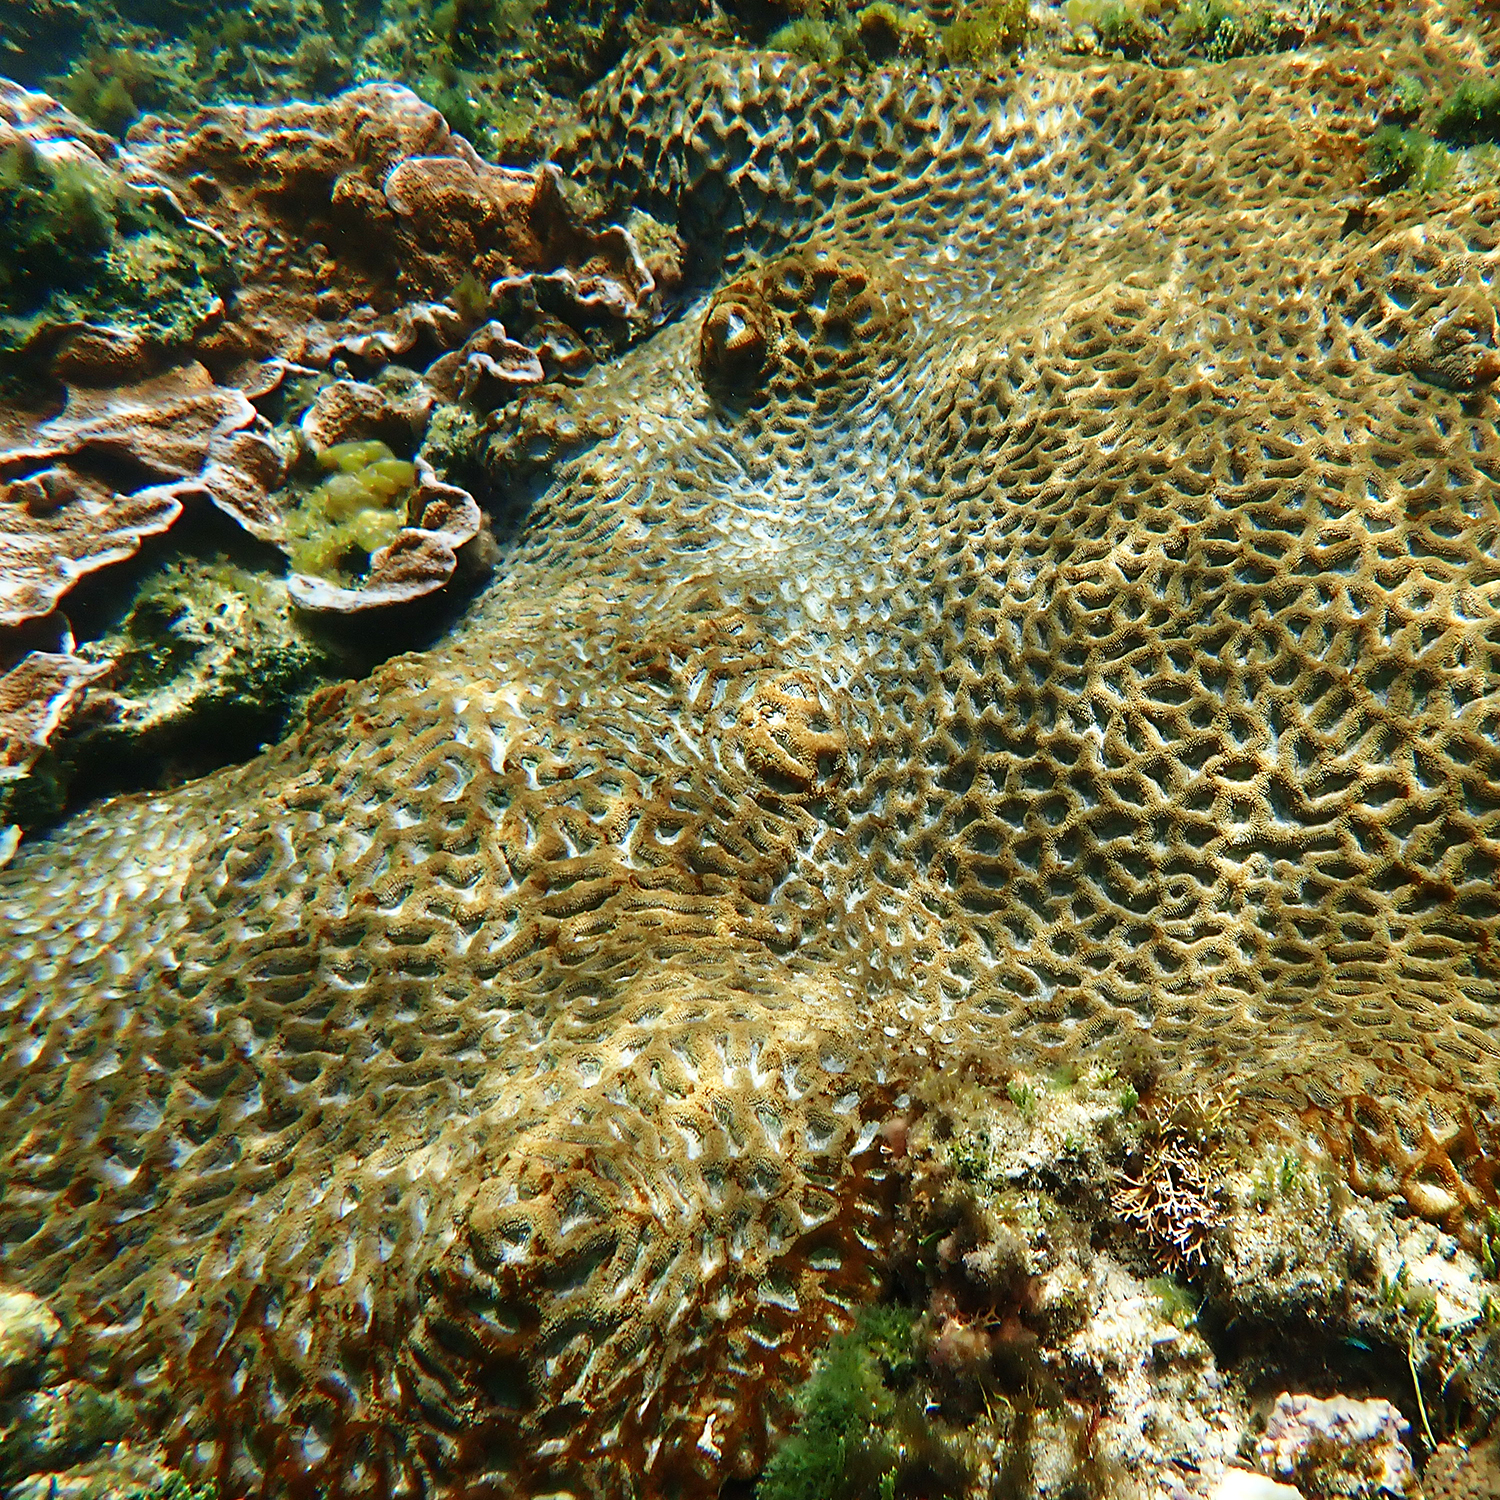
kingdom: Animalia
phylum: Cnidaria
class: Anthozoa
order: Scleractinia
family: Lobophylliidae
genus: Homophyllia
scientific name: Homophyllia bowerbanki
